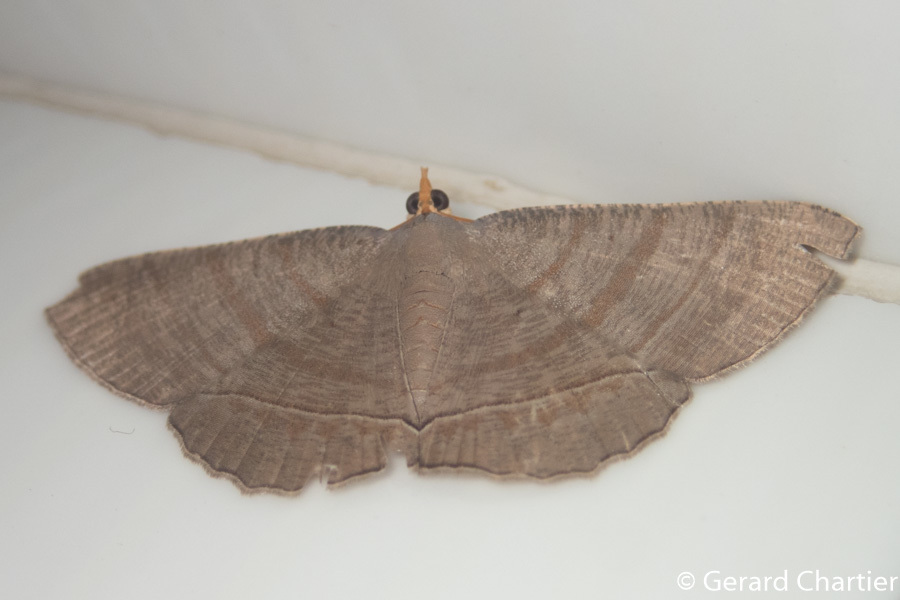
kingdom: Animalia
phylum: Arthropoda
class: Insecta
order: Lepidoptera
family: Geometridae
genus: Bulonga
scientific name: Bulonga schistacearia
